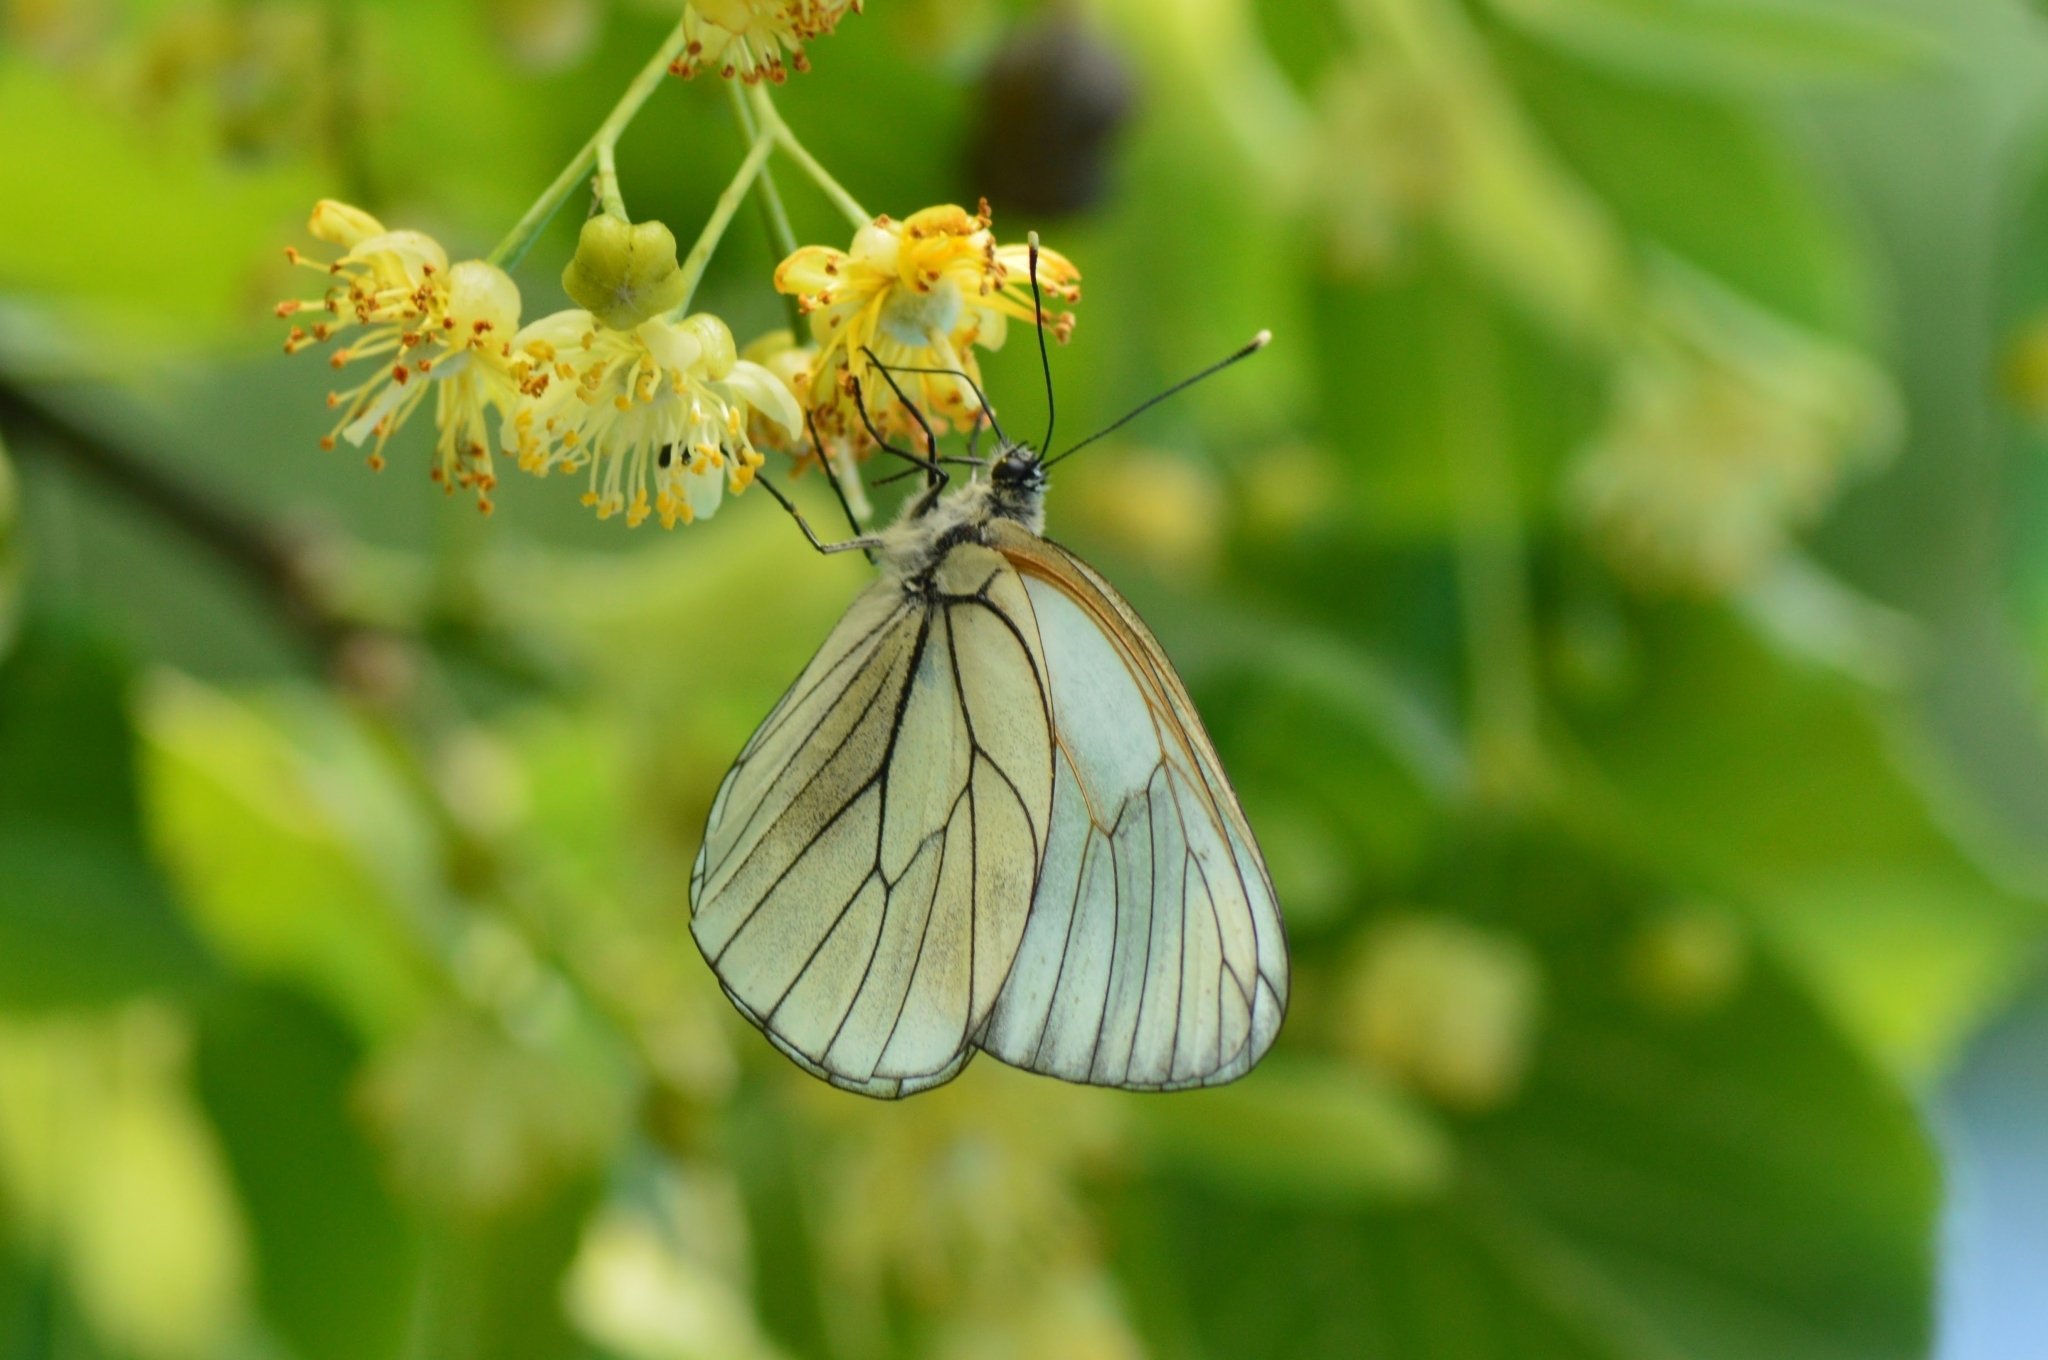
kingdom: Animalia
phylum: Arthropoda
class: Insecta
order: Lepidoptera
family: Pieridae
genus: Aporia
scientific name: Aporia crataegi
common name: Black-veined white
